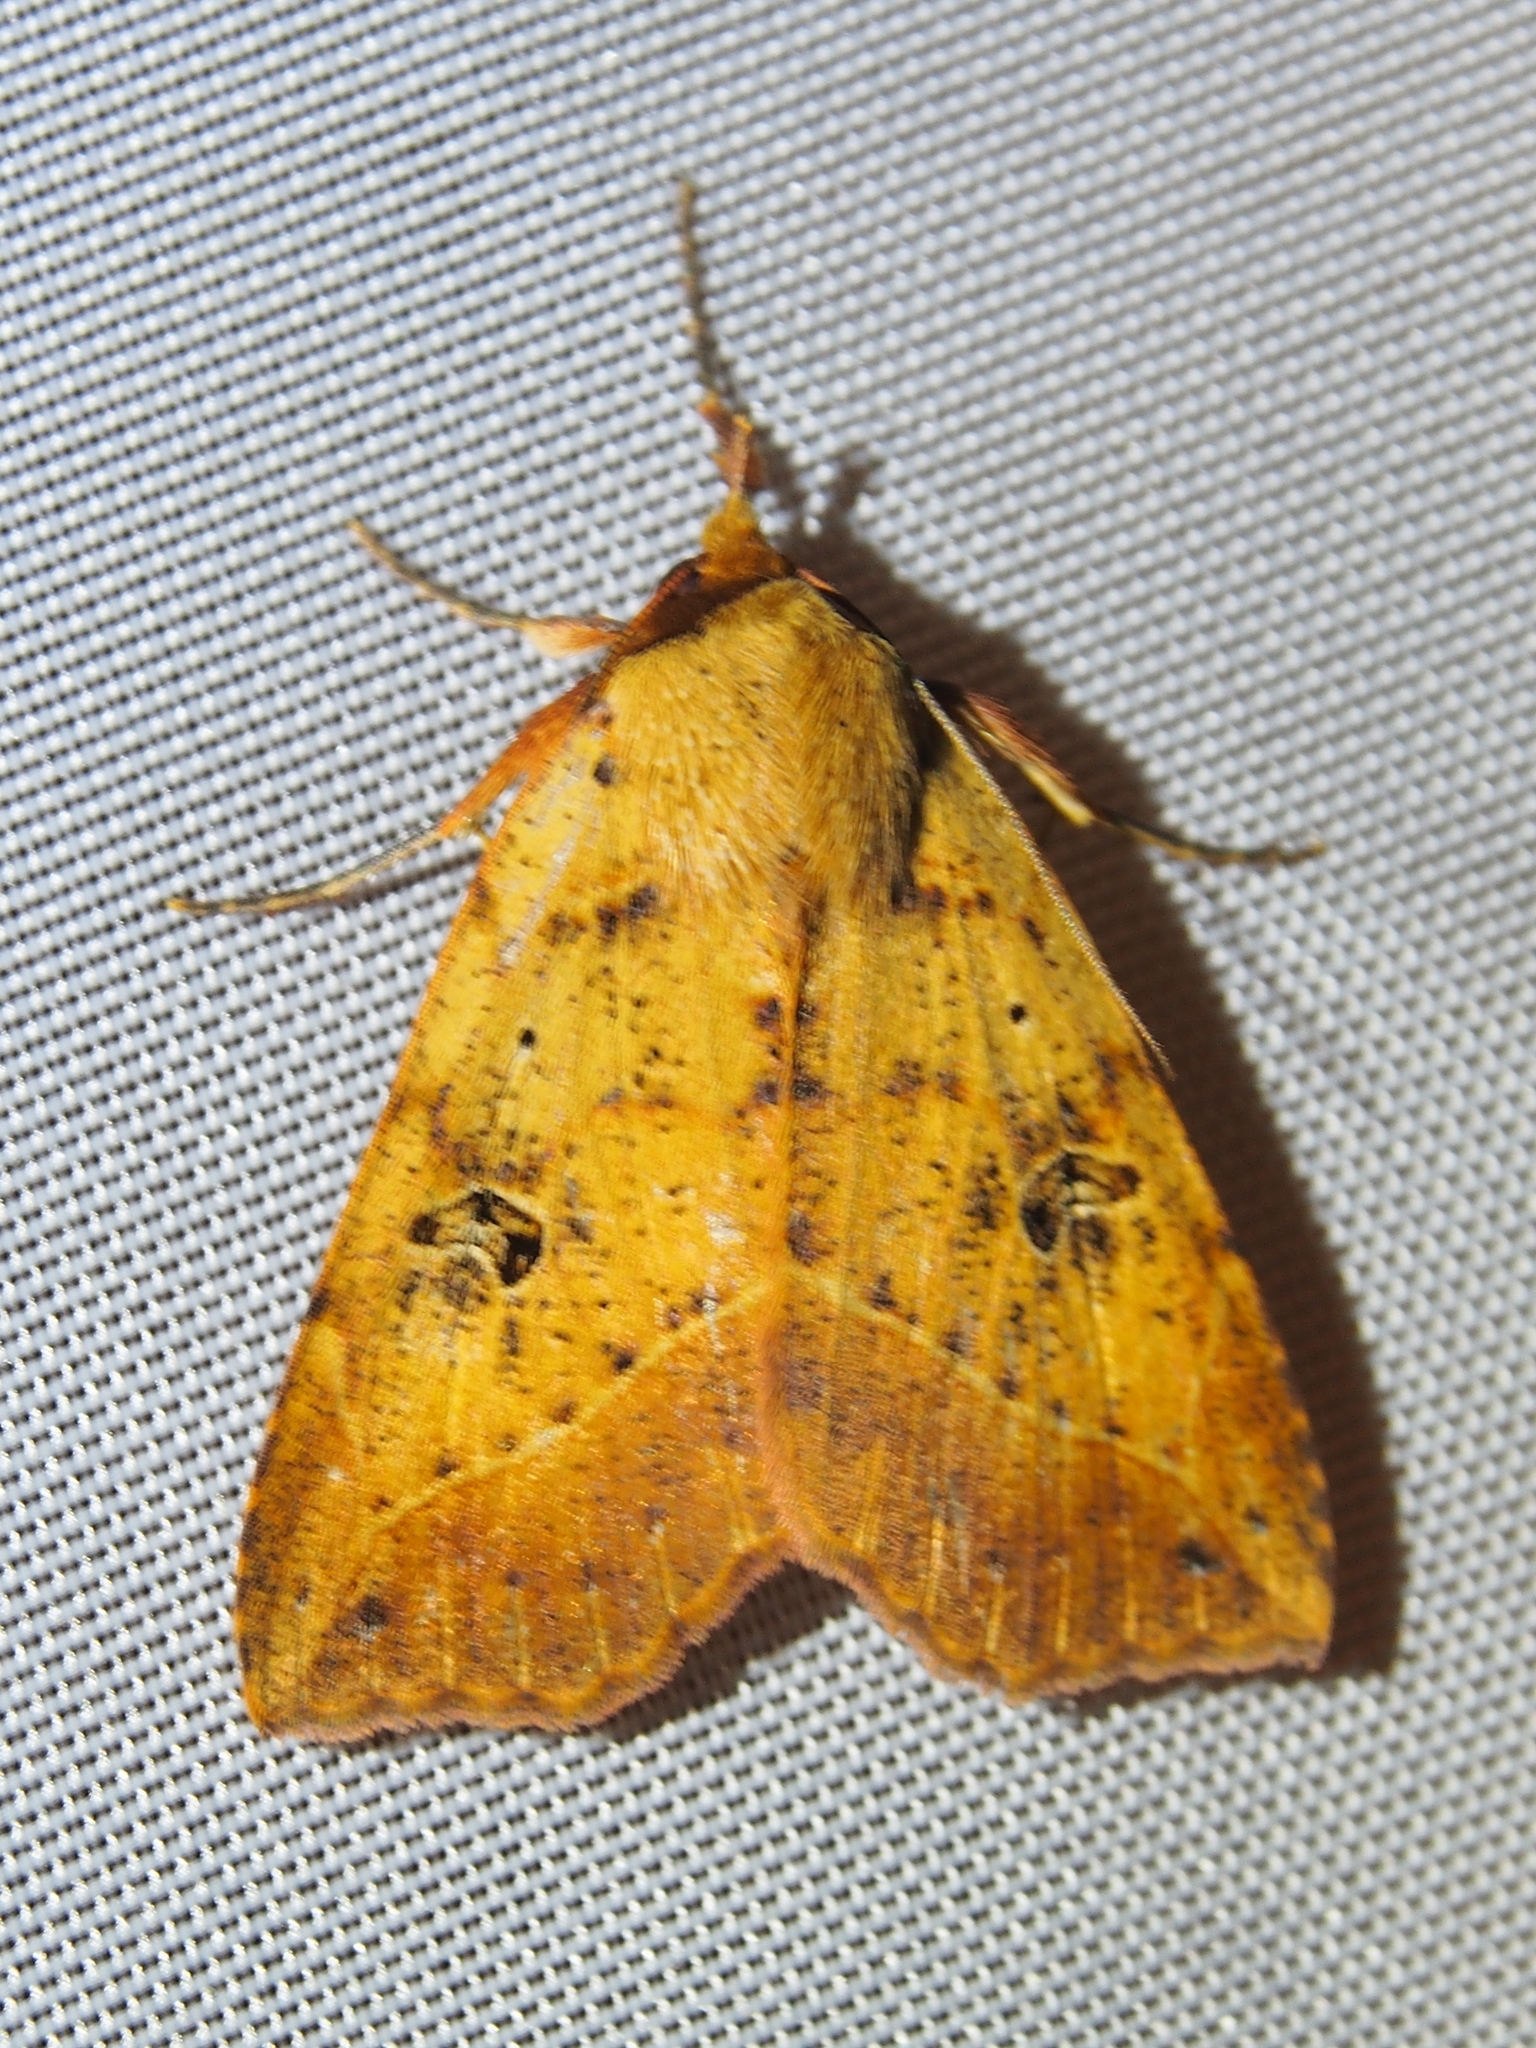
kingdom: Animalia
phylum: Arthropoda
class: Insecta
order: Lepidoptera
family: Erebidae
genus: Goniocarsia
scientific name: Goniocarsia electrica
